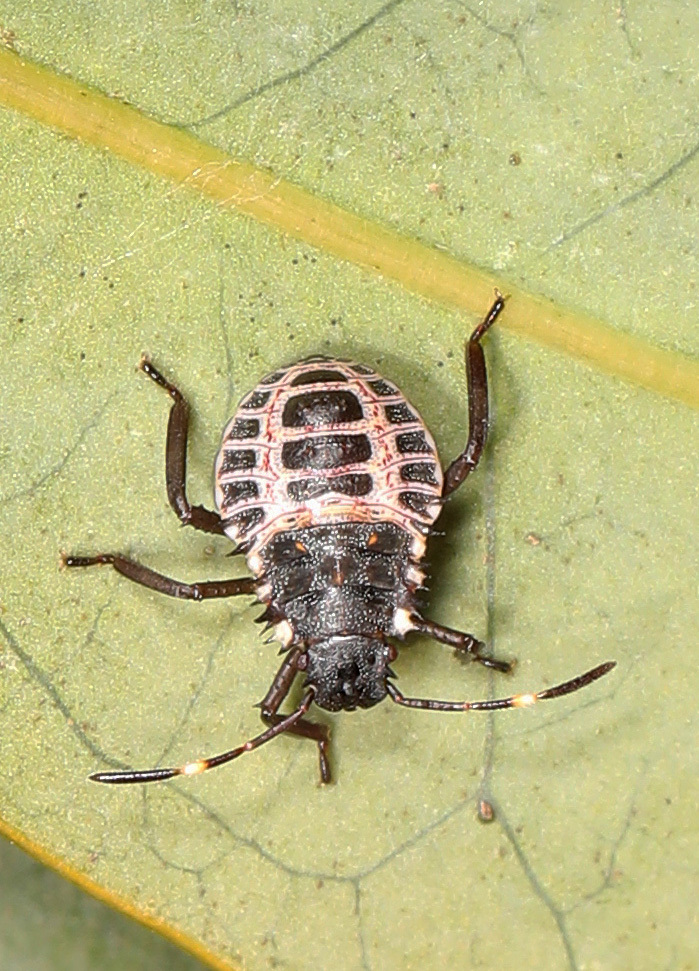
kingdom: Animalia
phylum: Arthropoda
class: Insecta
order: Hemiptera
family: Pentatomidae
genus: Halyomorpha
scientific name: Halyomorpha halys
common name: Brown marmorated stink bug
